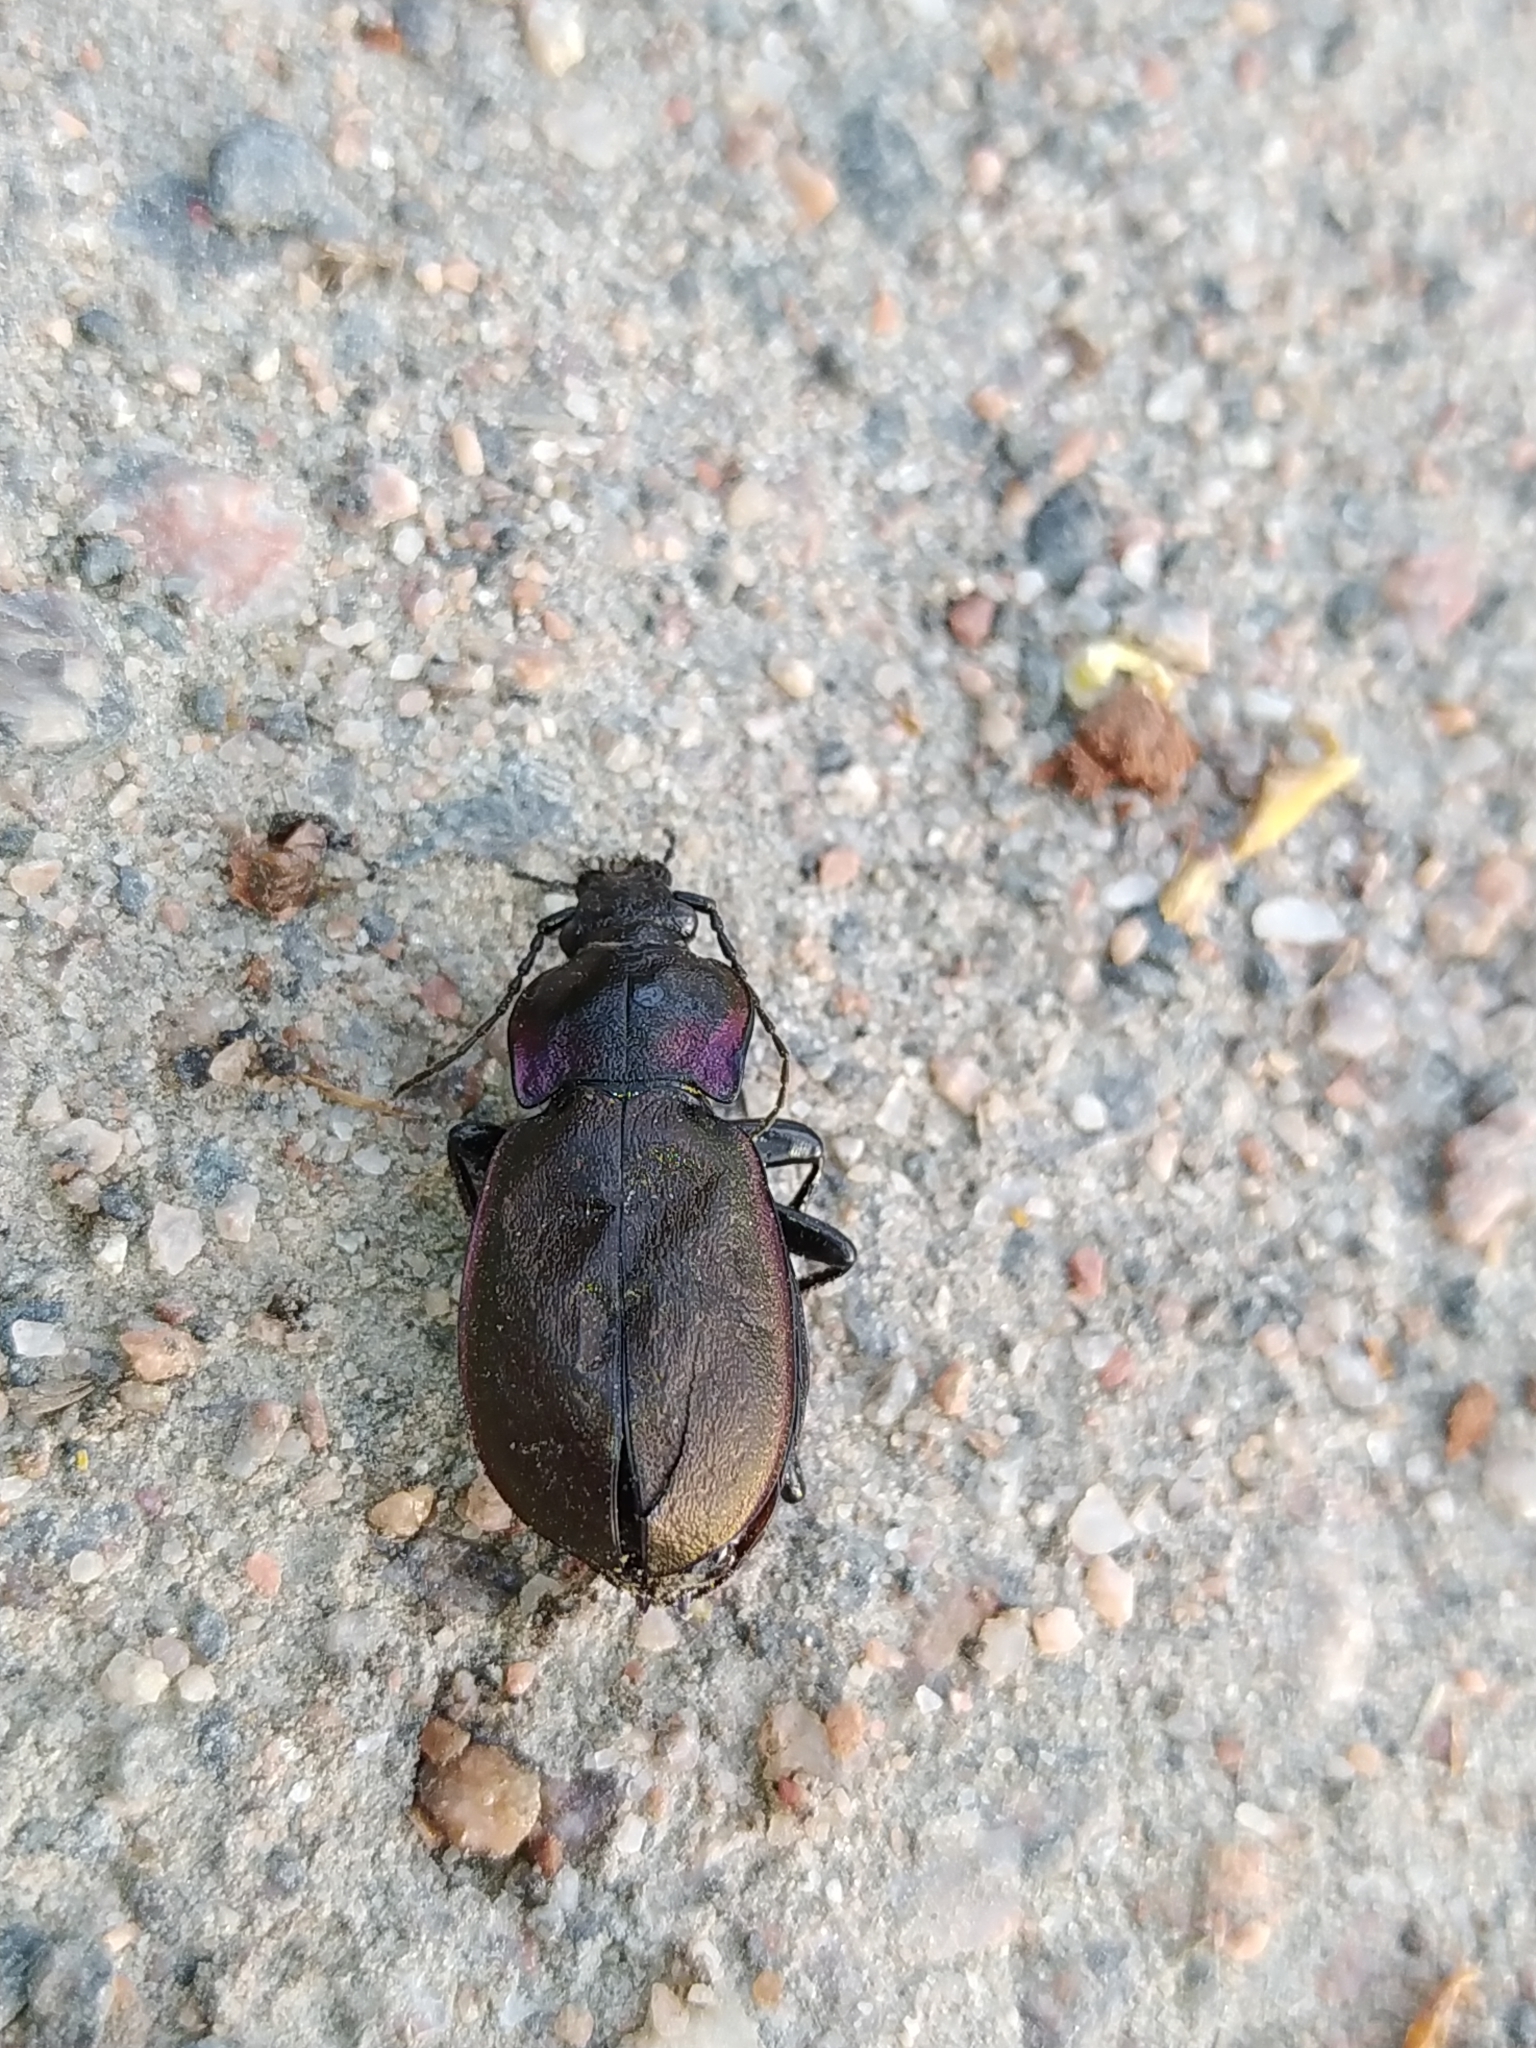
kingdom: Animalia
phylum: Arthropoda
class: Insecta
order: Coleoptera
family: Carabidae
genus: Carabus
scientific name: Carabus nemoralis
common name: European ground beetle
